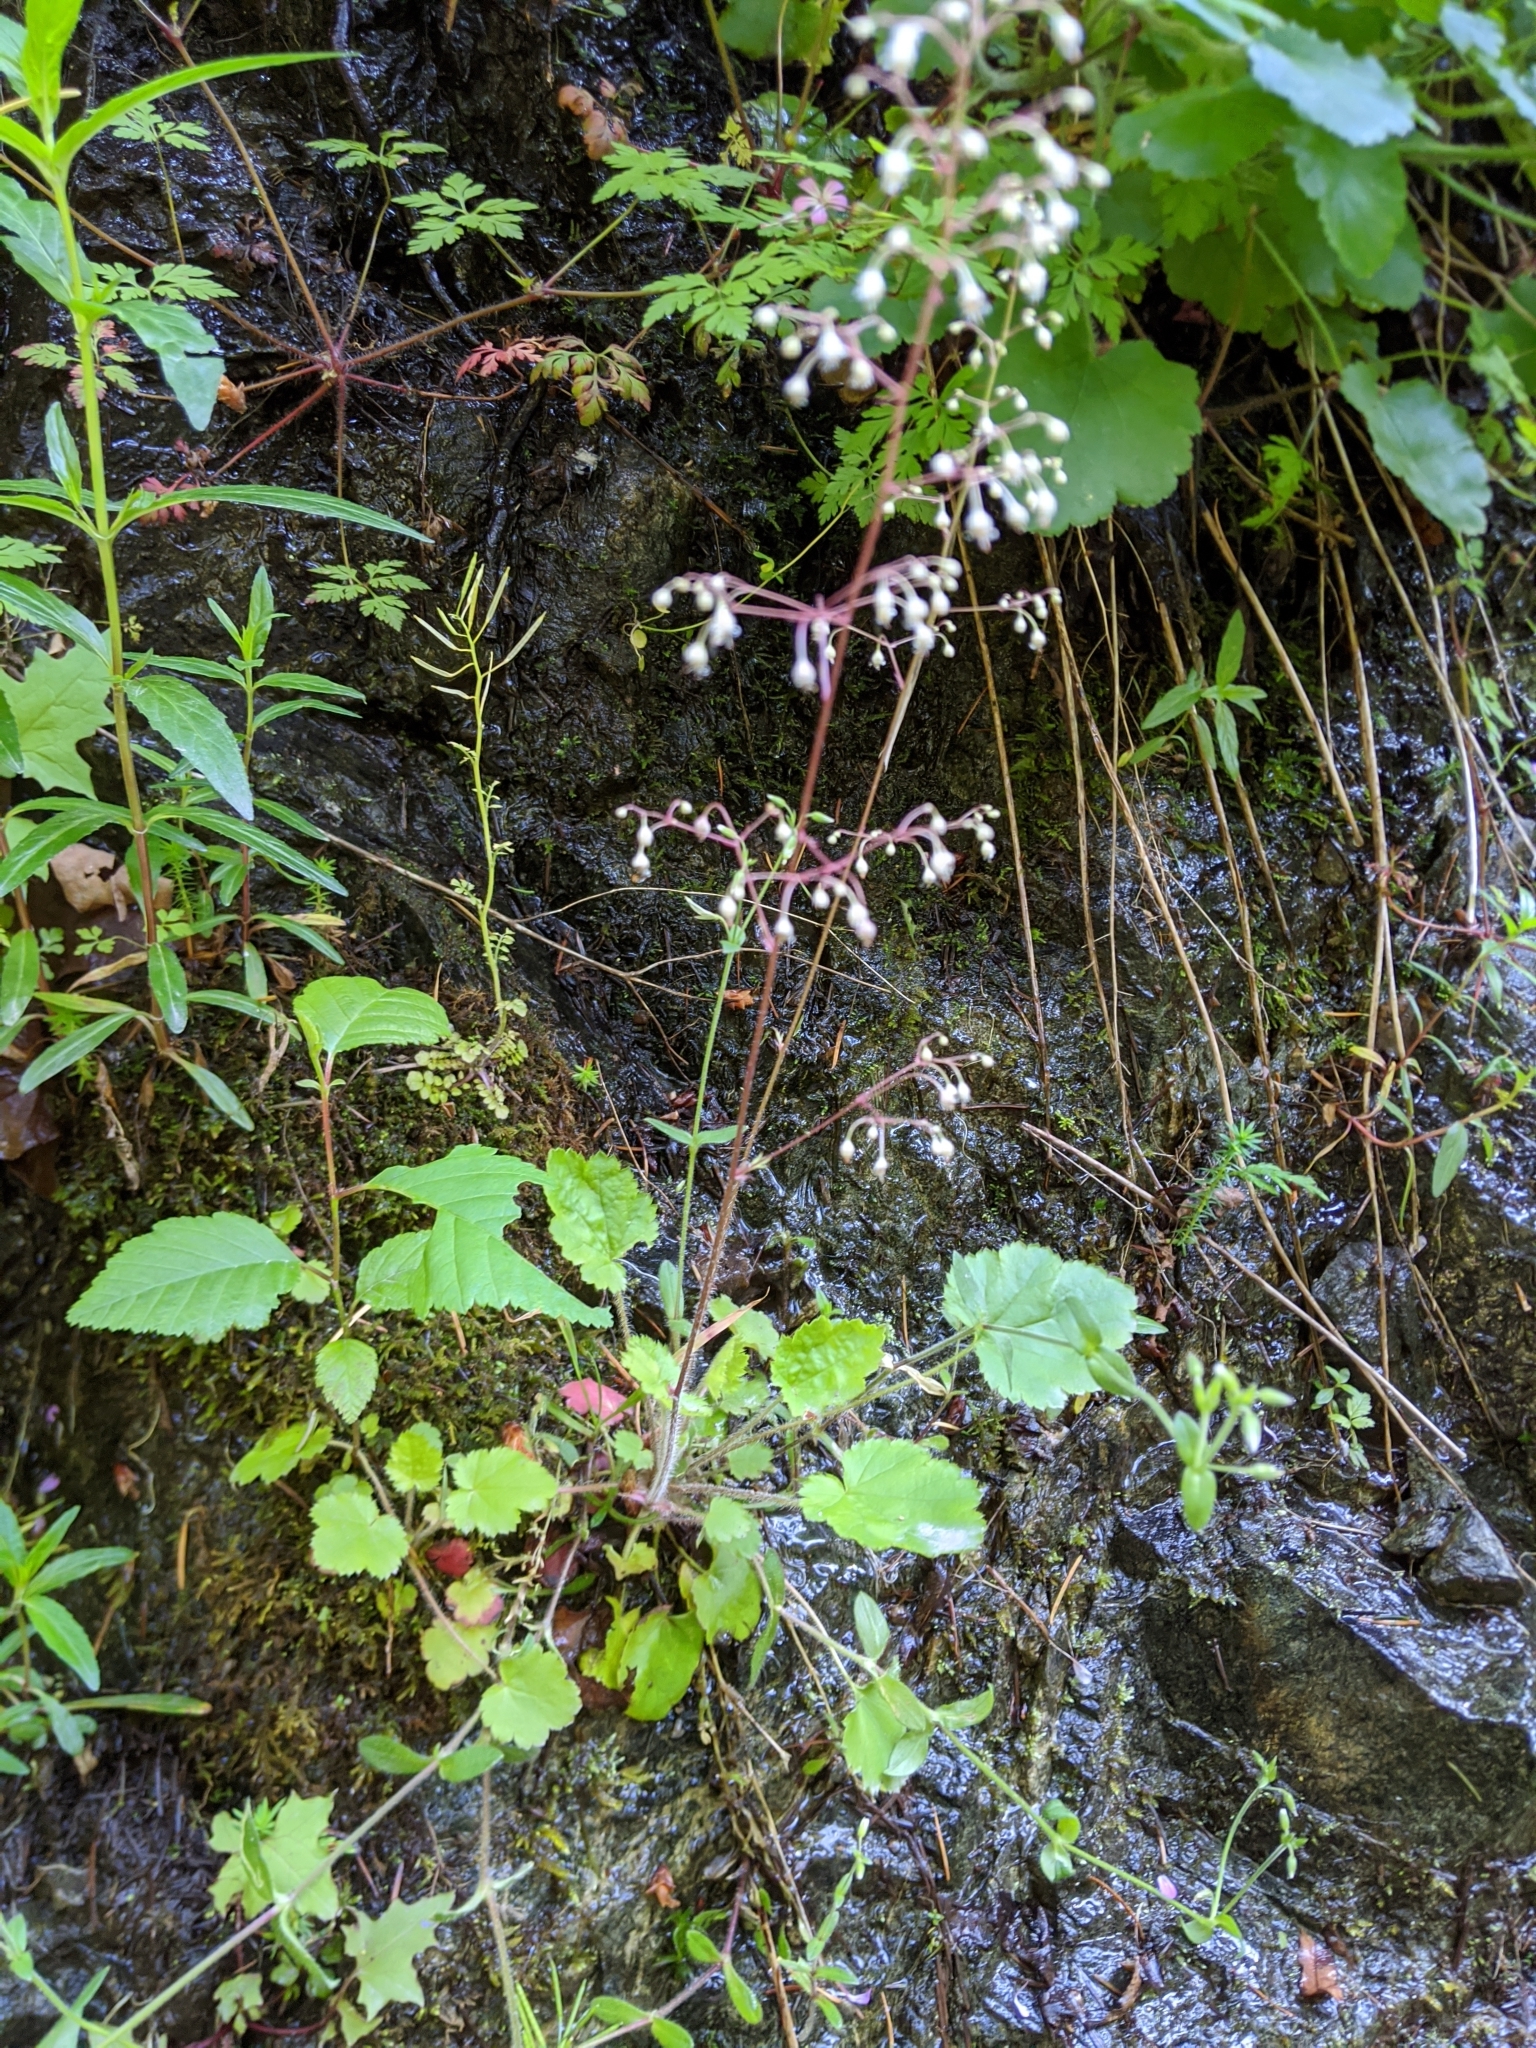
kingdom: Plantae
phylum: Tracheophyta
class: Magnoliopsida
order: Saxifragales
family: Saxifragaceae
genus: Heuchera
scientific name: Heuchera micrantha
